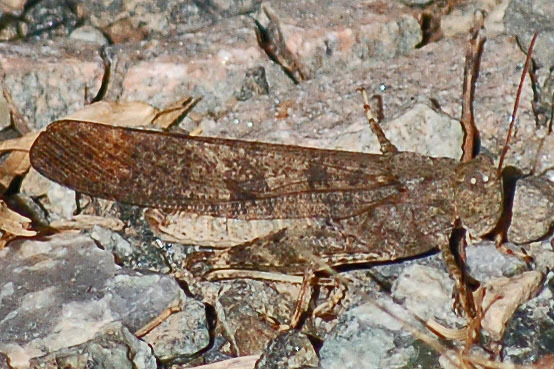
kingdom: Animalia
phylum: Arthropoda
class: Insecta
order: Orthoptera
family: Acrididae
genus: Dissosteira
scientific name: Dissosteira carolina
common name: Carolina grasshopper
